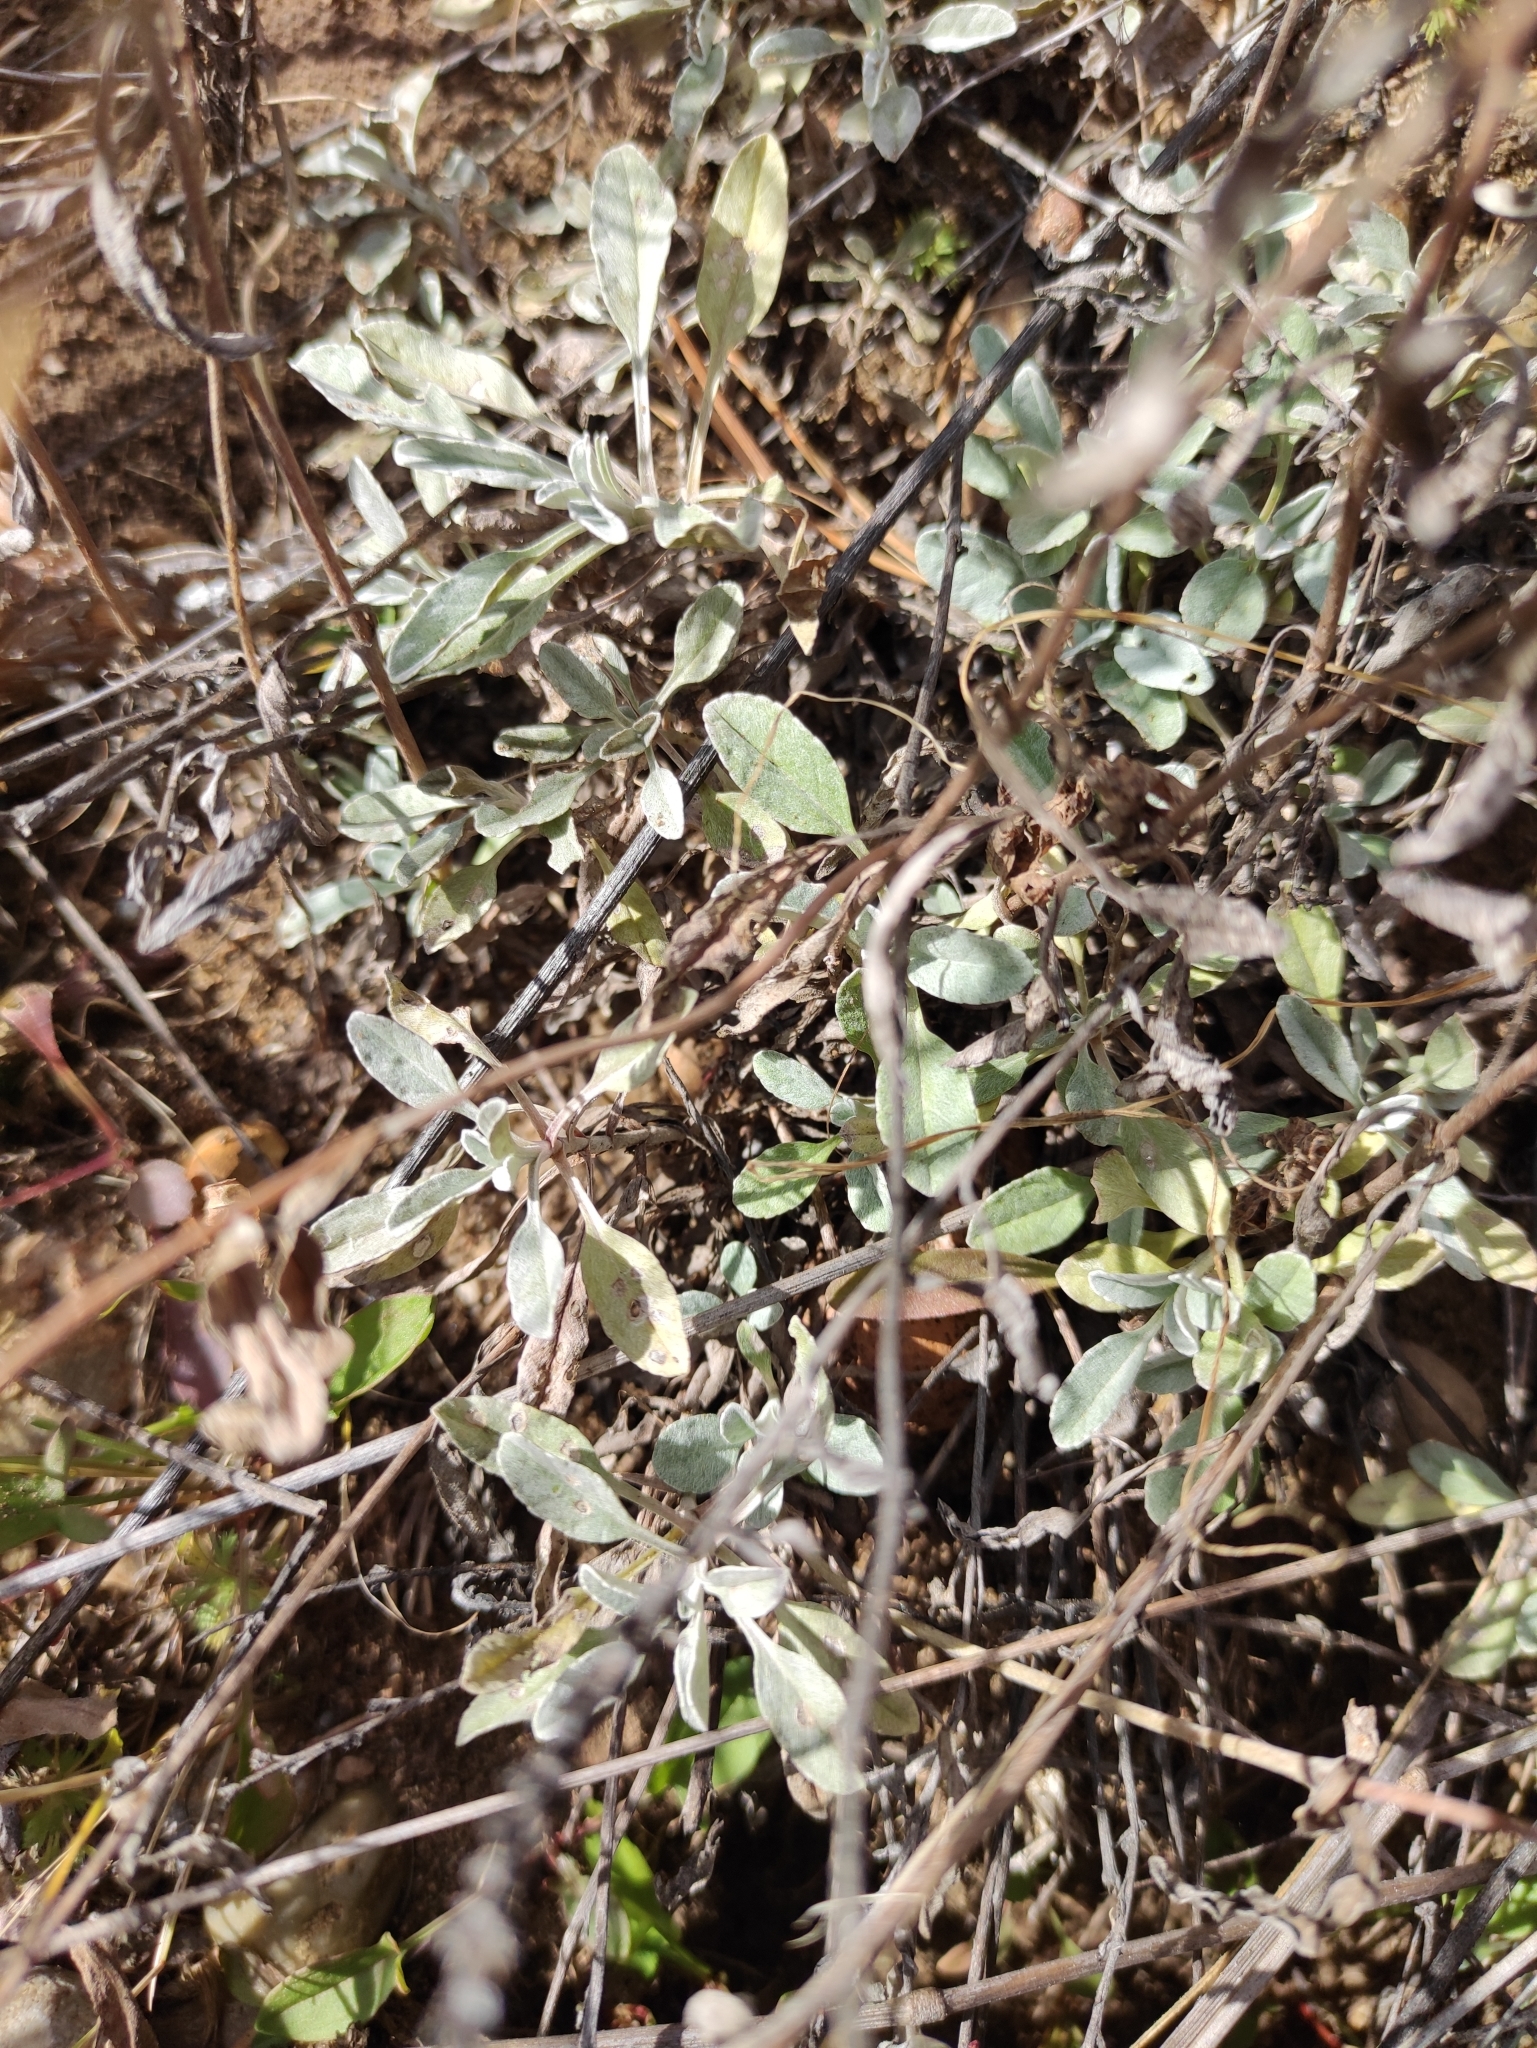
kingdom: Plantae
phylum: Tracheophyta
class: Magnoliopsida
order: Lamiales
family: Plantaginaceae
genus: Veronica
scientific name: Veronica incana
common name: Silver speedwell
